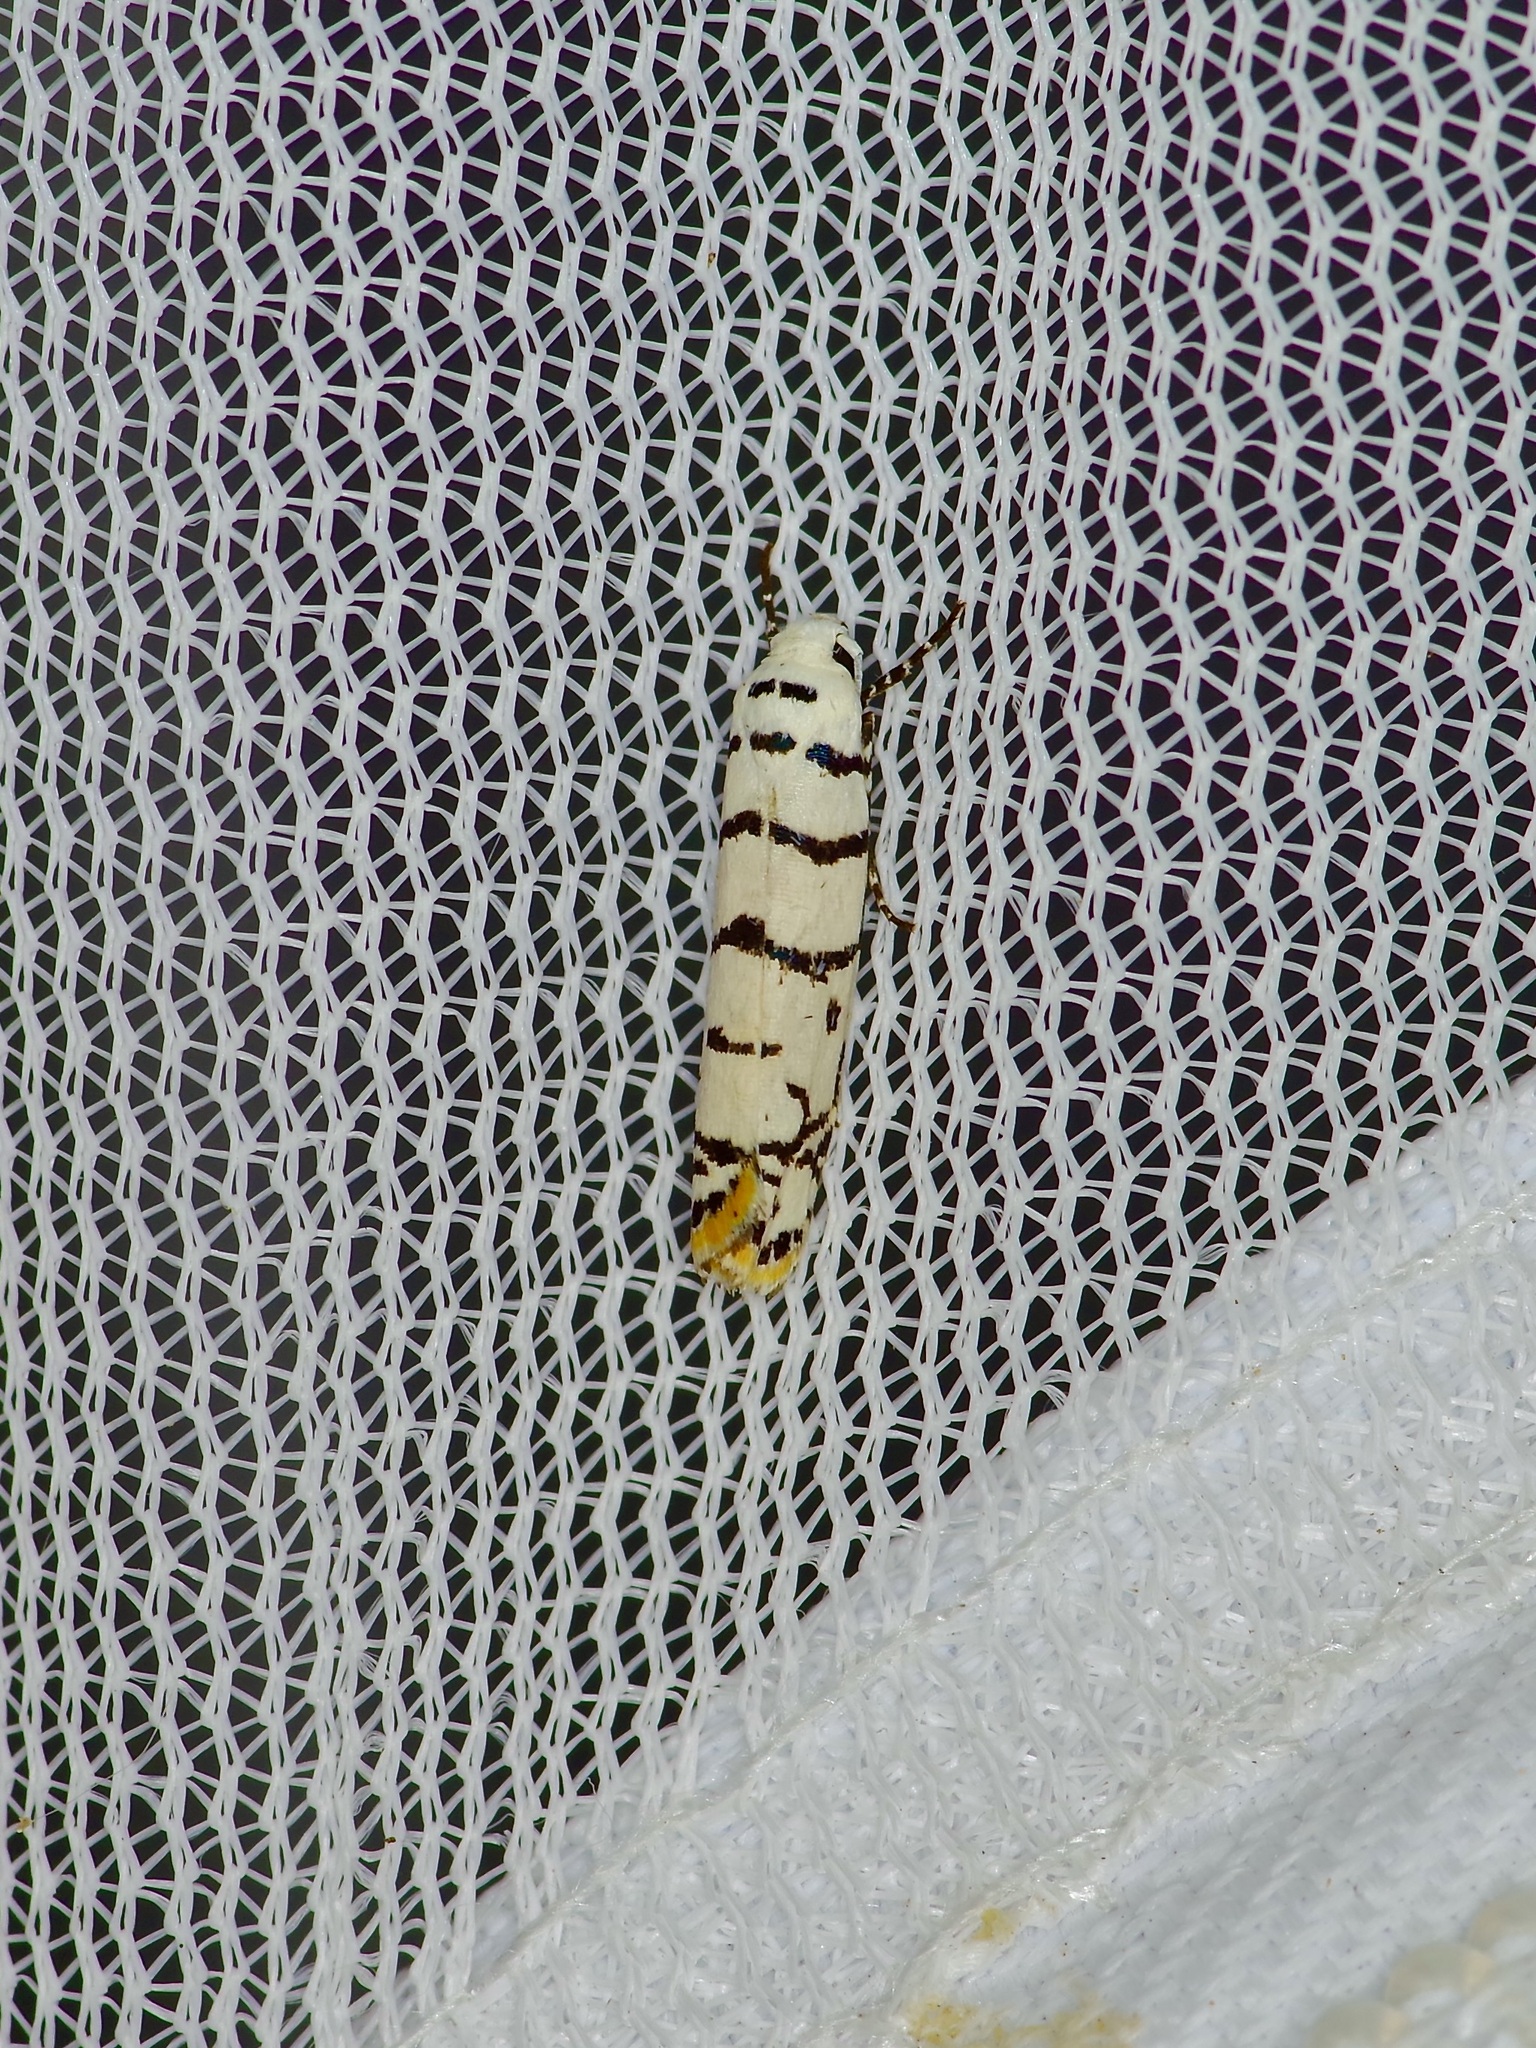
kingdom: Animalia
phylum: Arthropoda
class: Insecta
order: Lepidoptera
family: Ethmiidae
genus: Ethmia
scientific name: Ethmia delliella
